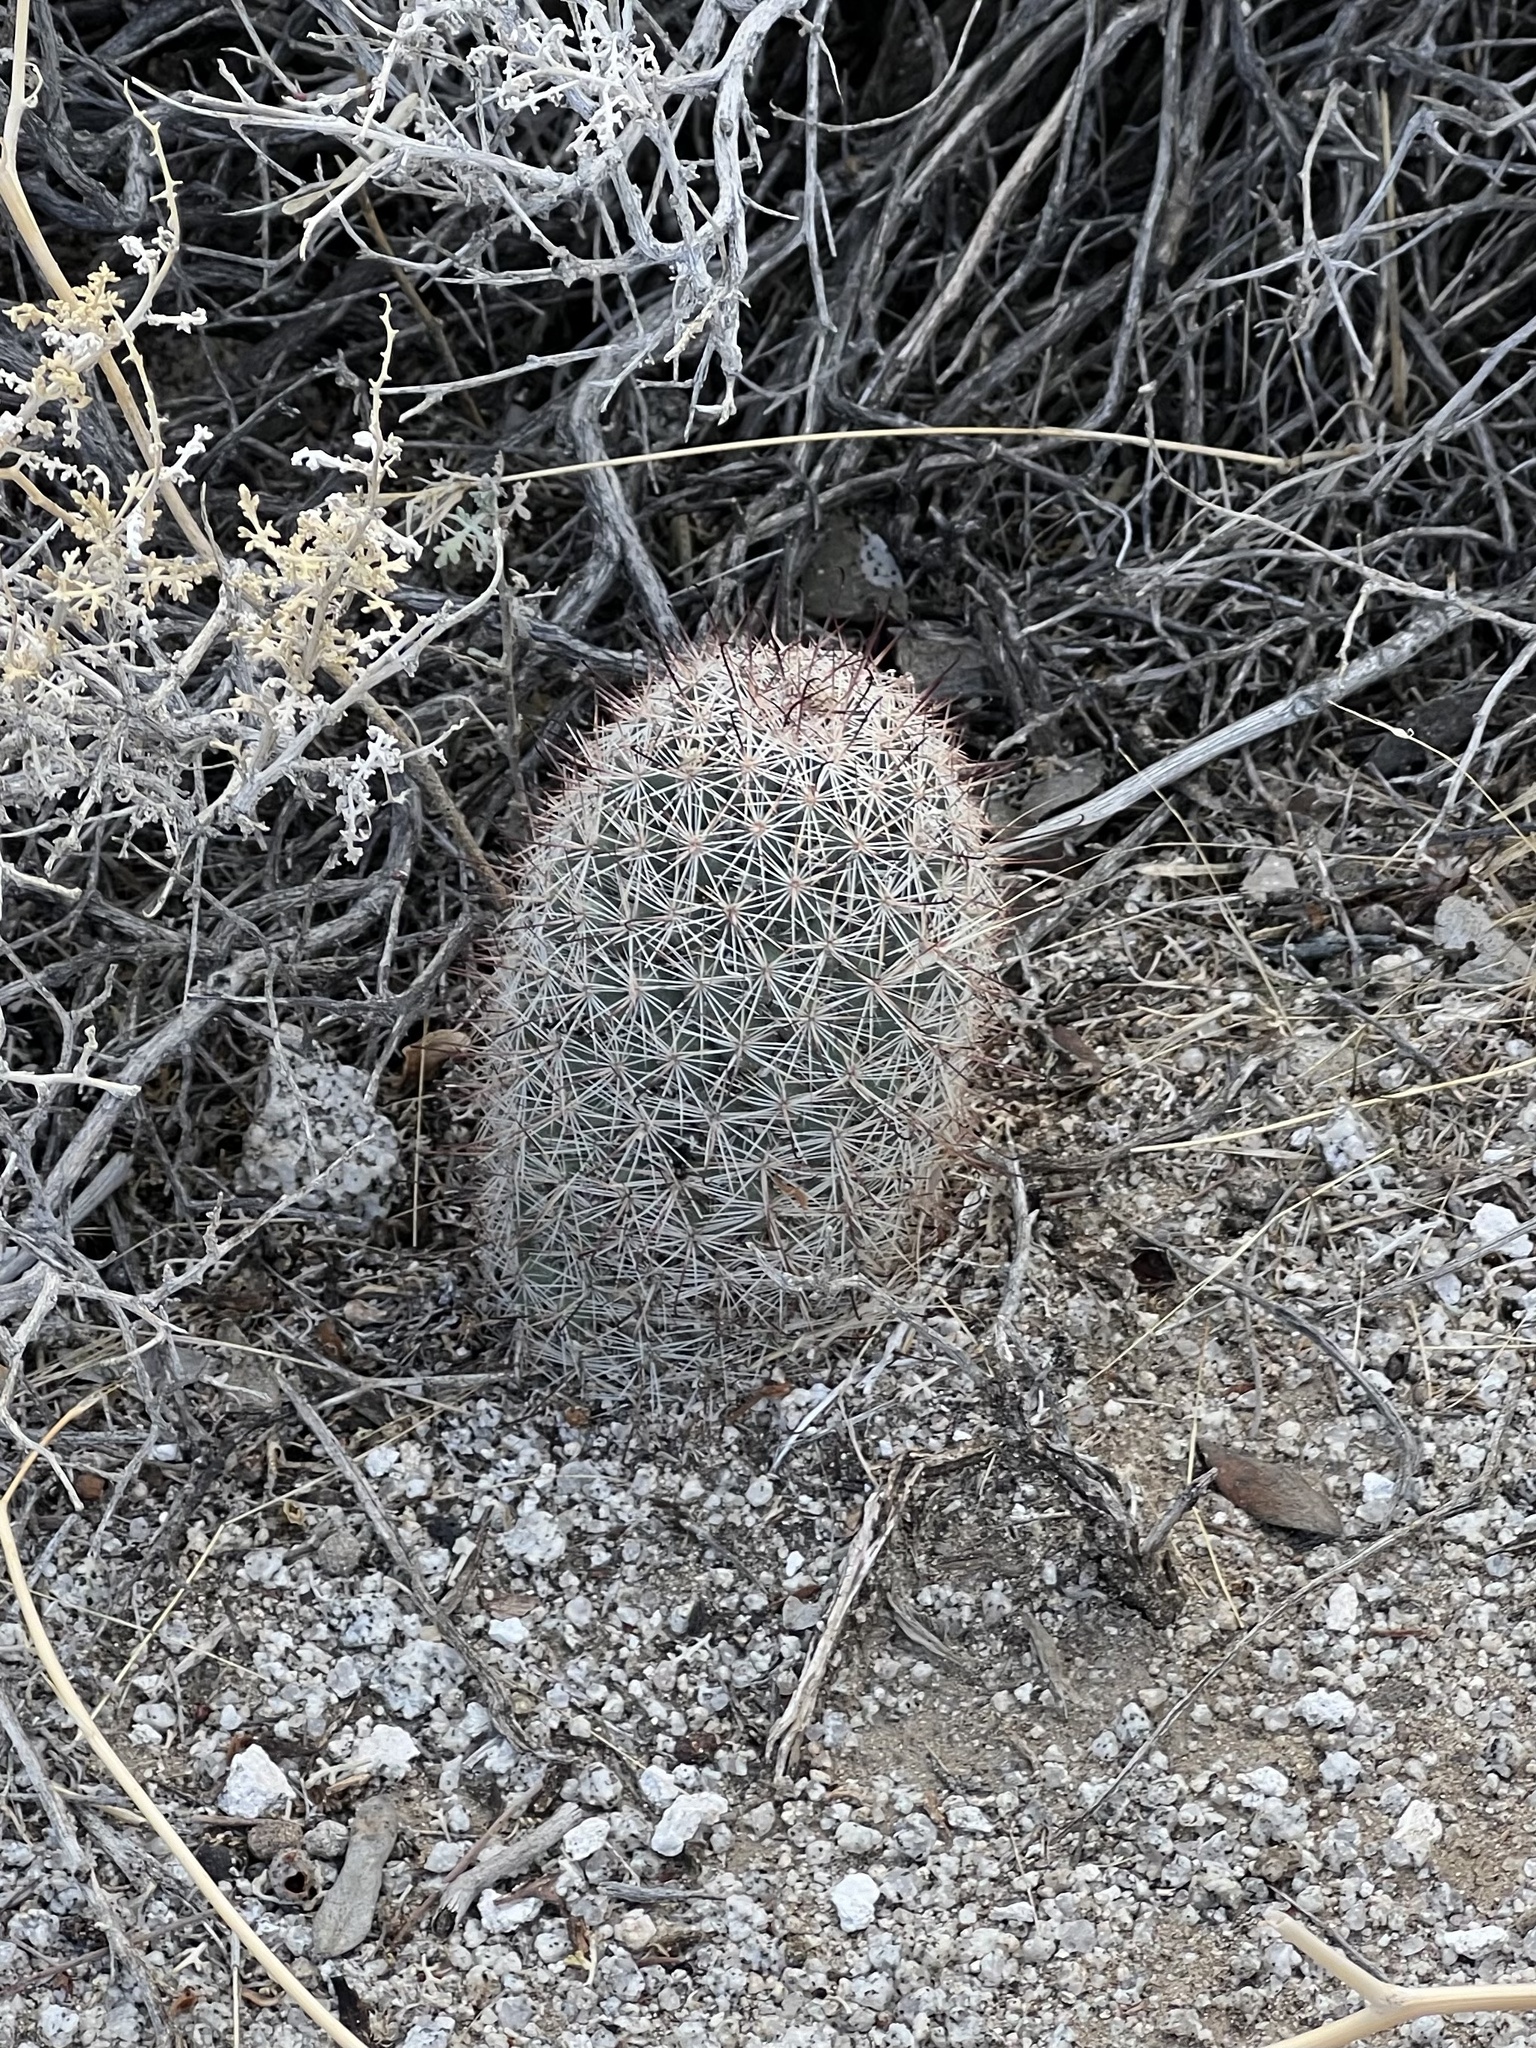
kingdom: Plantae
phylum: Tracheophyta
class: Magnoliopsida
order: Caryophyllales
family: Cactaceae
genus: Cochemiea
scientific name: Cochemiea dioica
